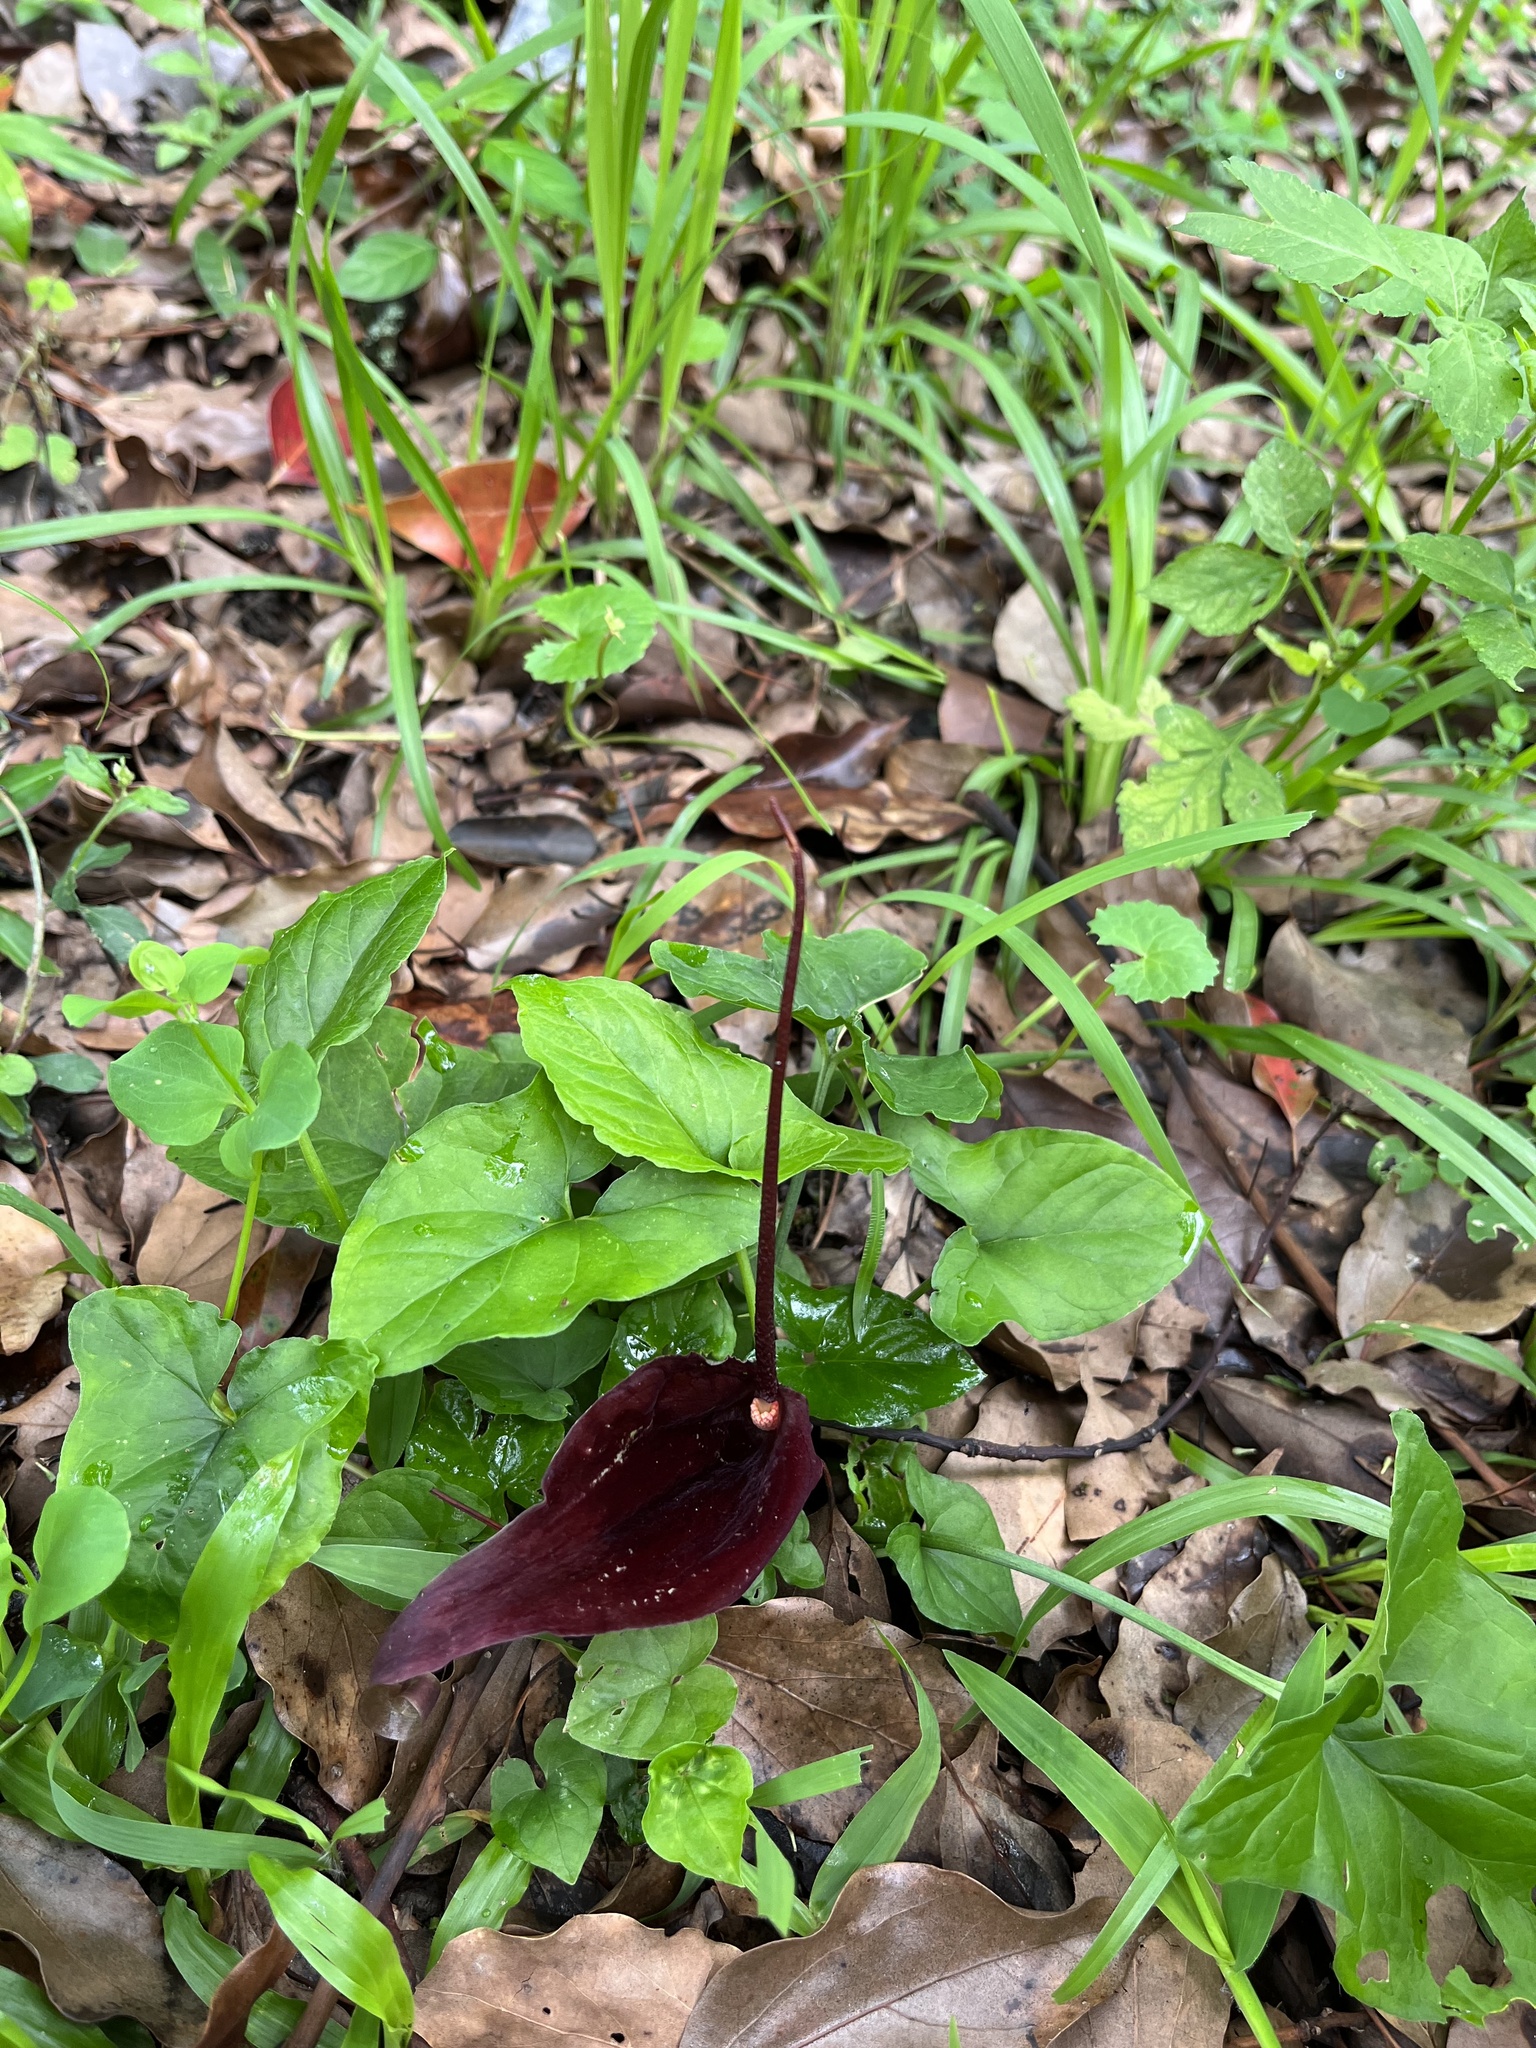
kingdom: Plantae
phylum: Tracheophyta
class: Liliopsida
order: Alismatales
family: Araceae
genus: Typhonium
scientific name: Typhonium blumei
